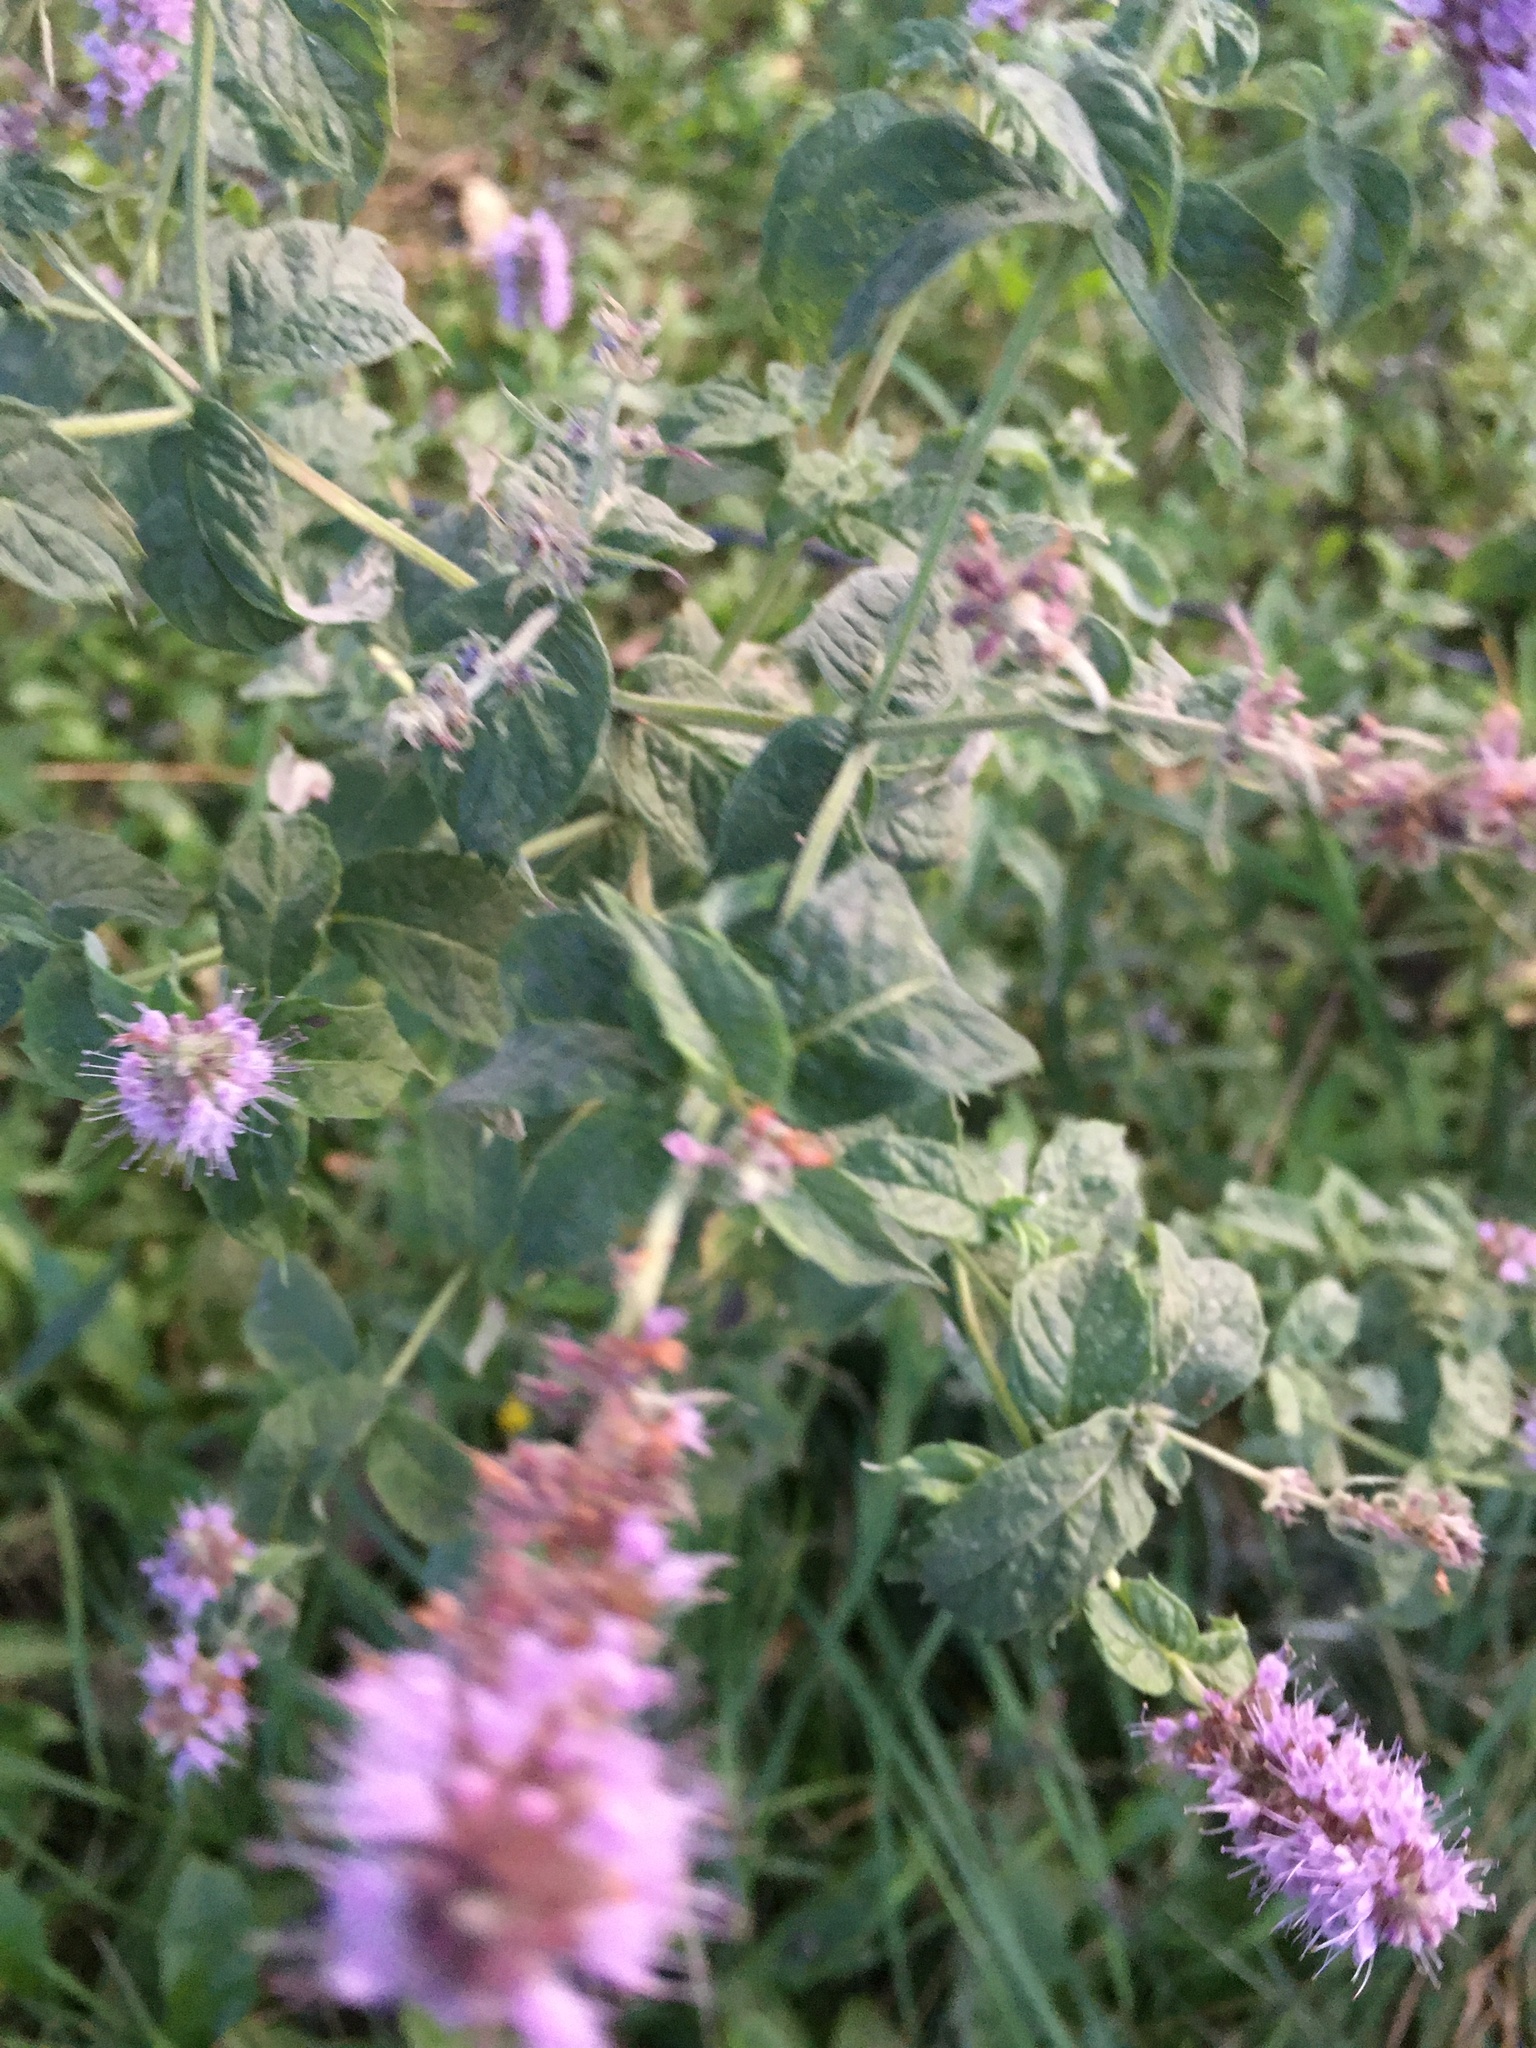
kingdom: Plantae
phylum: Tracheophyta
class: Magnoliopsida
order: Lamiales
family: Lamiaceae
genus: Mentha
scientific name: Mentha longifolia
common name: Horse mint
